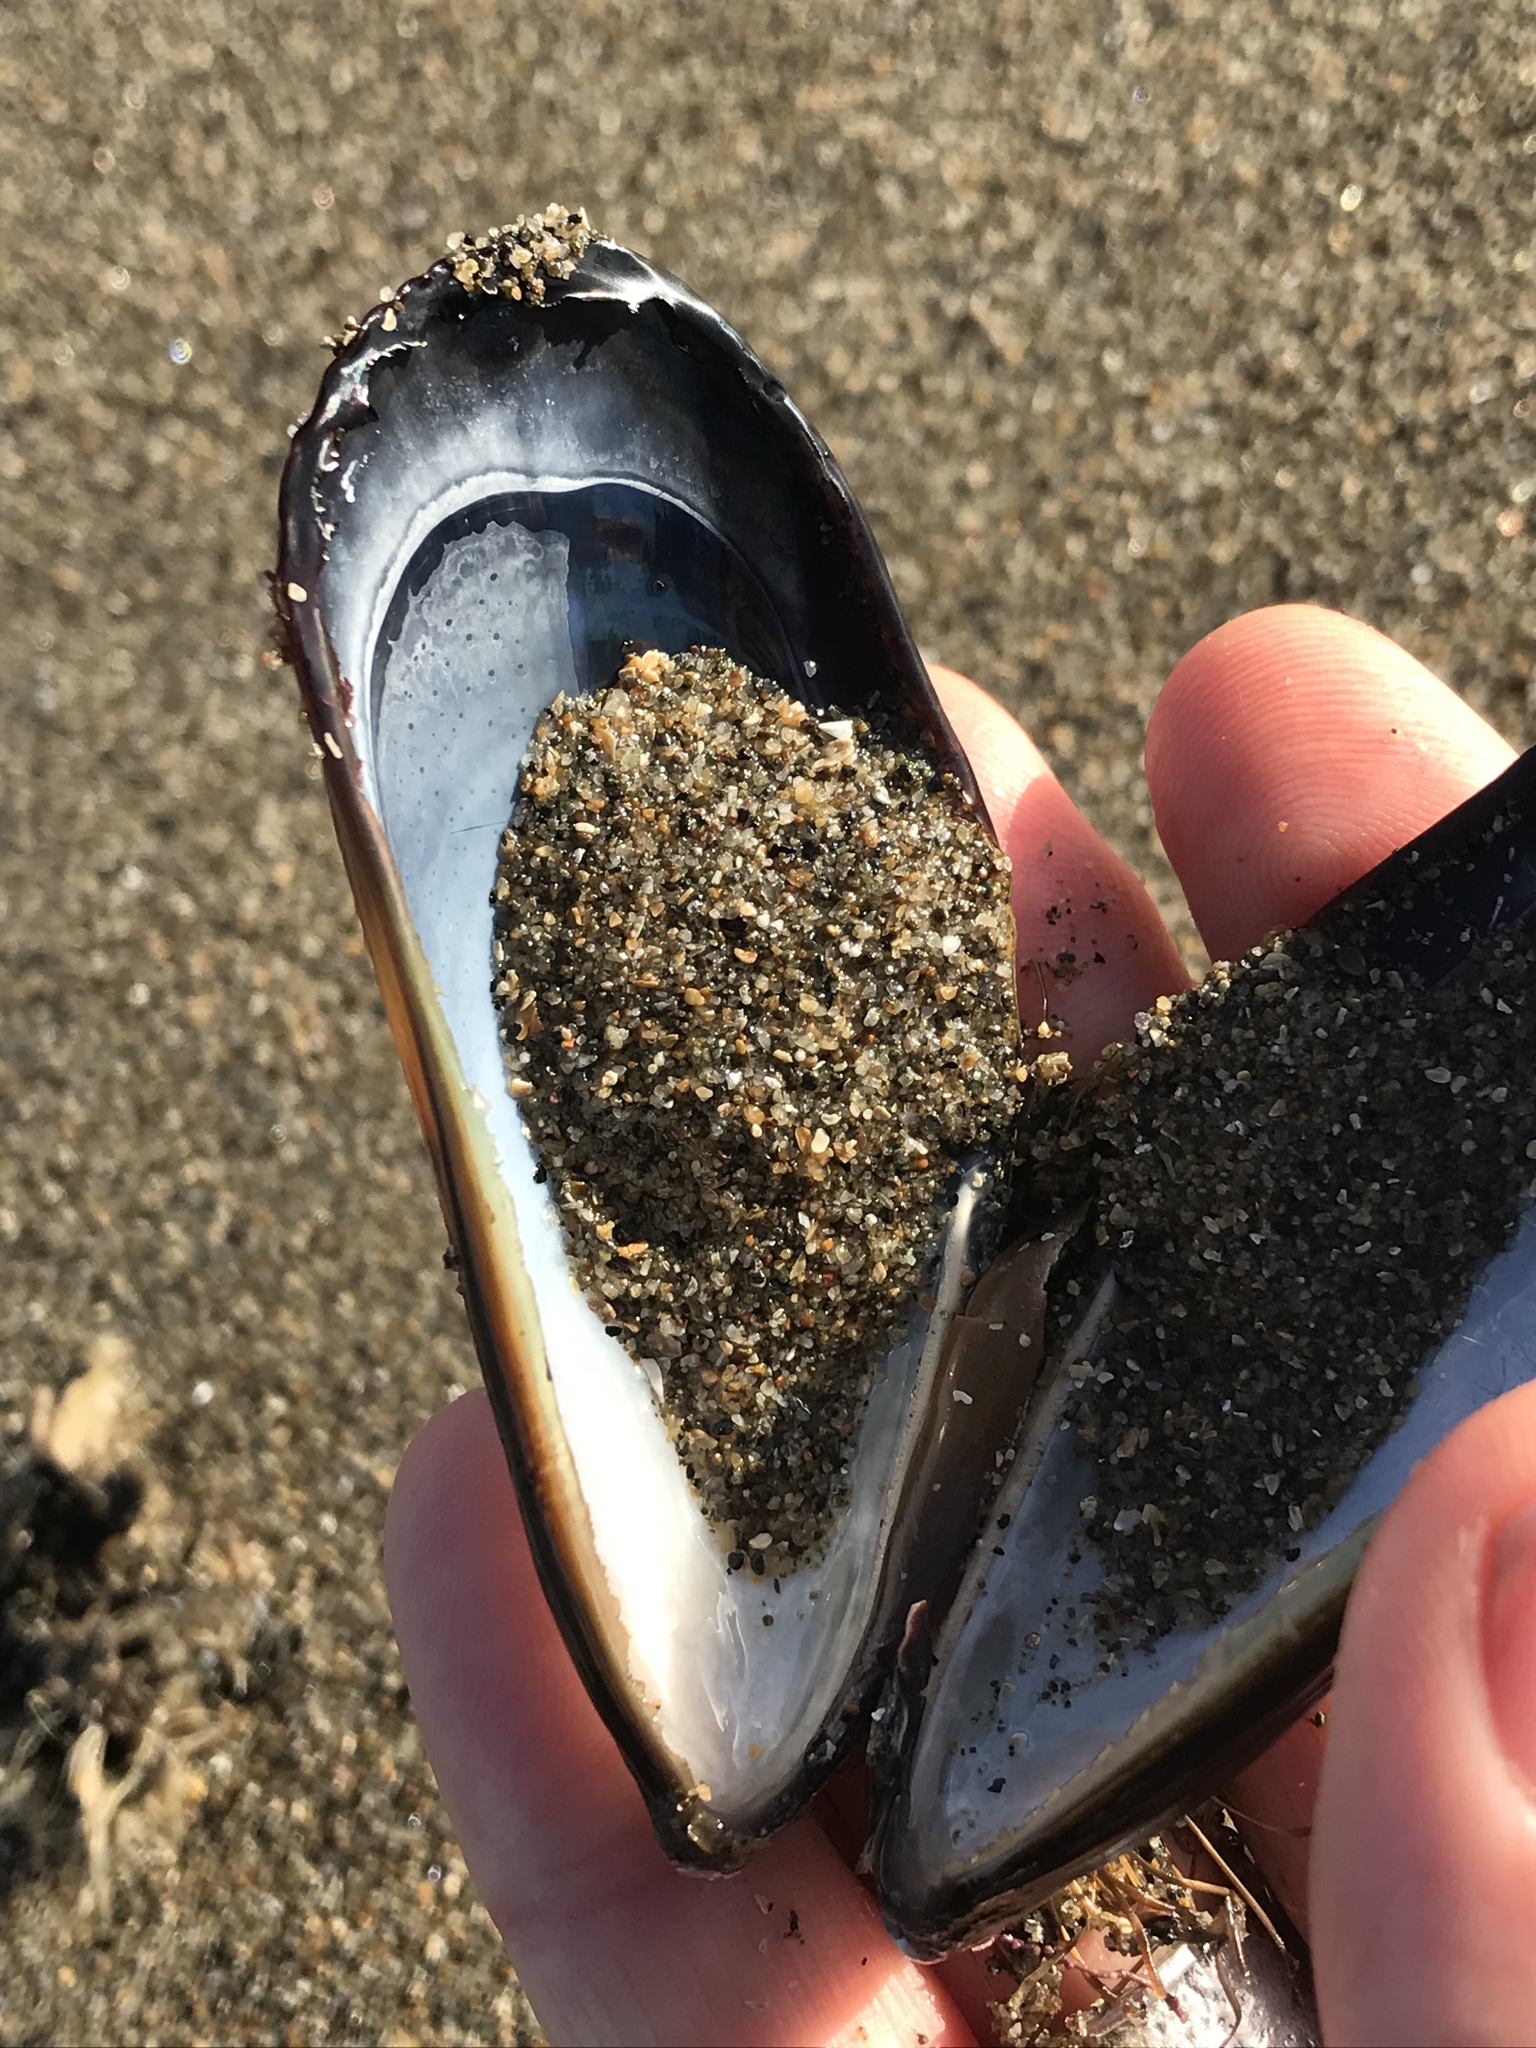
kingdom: Animalia
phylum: Mollusca
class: Bivalvia
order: Mytilida
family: Mytilidae
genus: Mytilus
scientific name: Mytilus californianus
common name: California mussel
